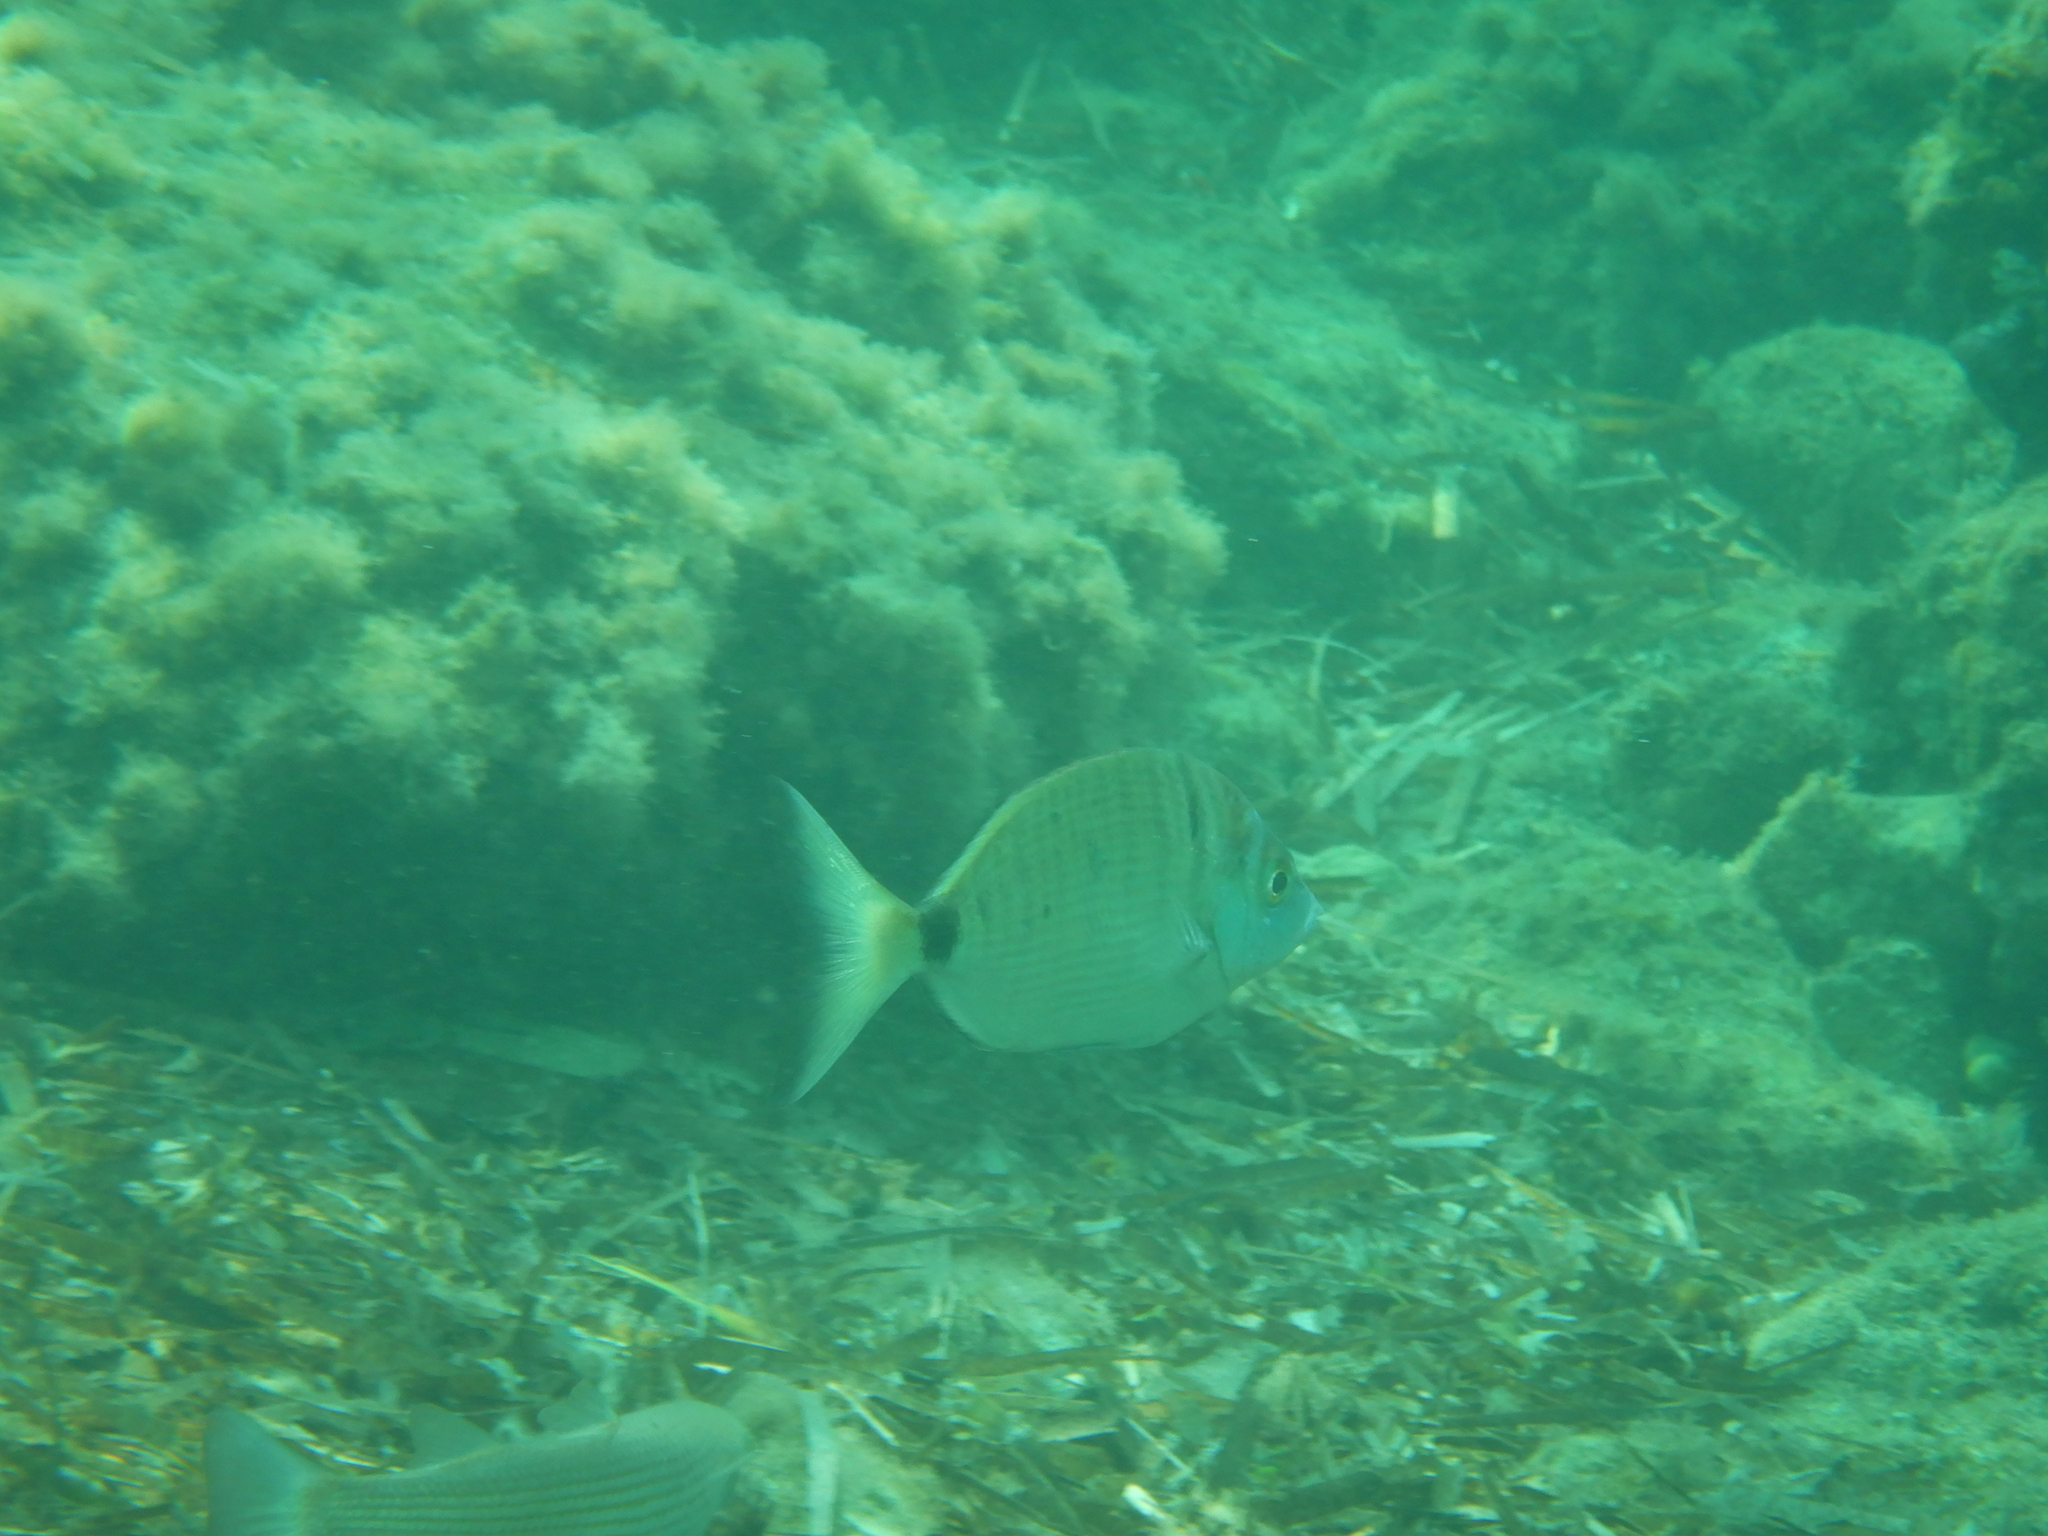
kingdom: Animalia
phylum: Chordata
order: Perciformes
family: Sparidae
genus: Diplodus
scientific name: Diplodus puntazzo
